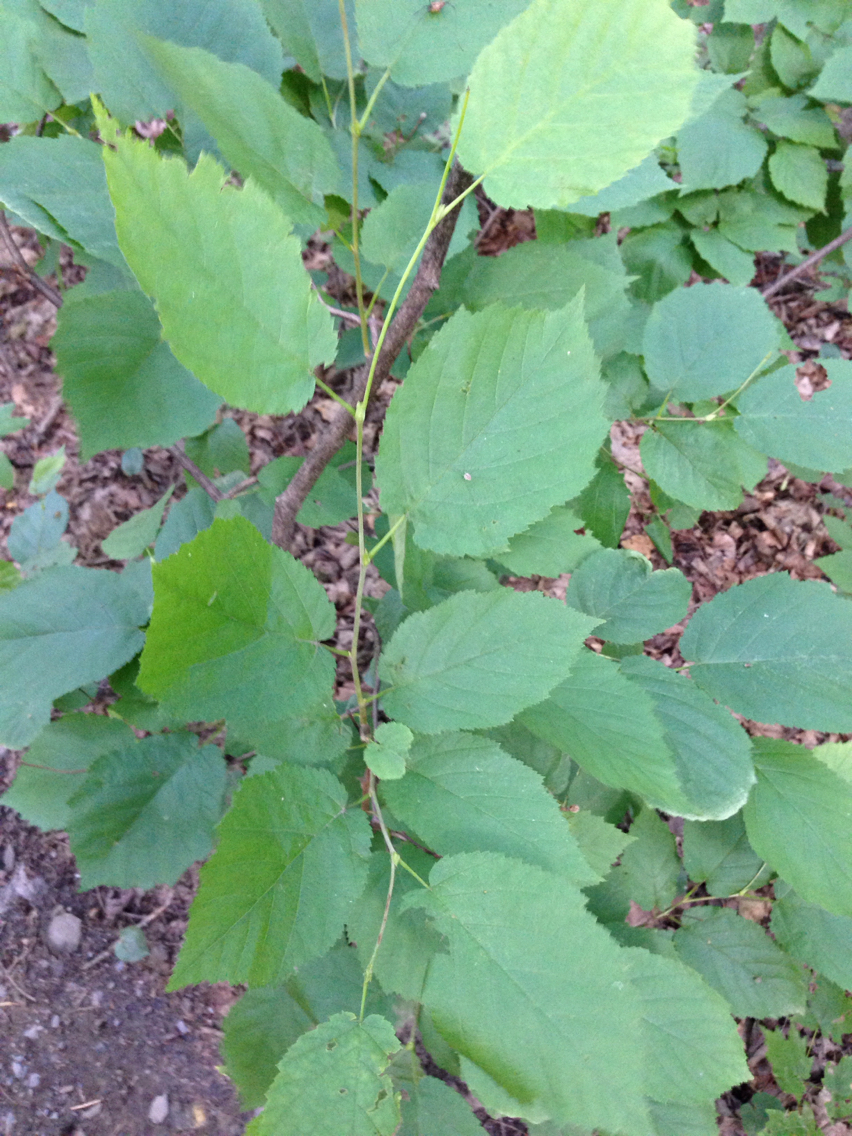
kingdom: Plantae
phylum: Tracheophyta
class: Magnoliopsida
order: Fagales
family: Betulaceae
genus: Corylus
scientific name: Corylus cornuta
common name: Beaked hazel
